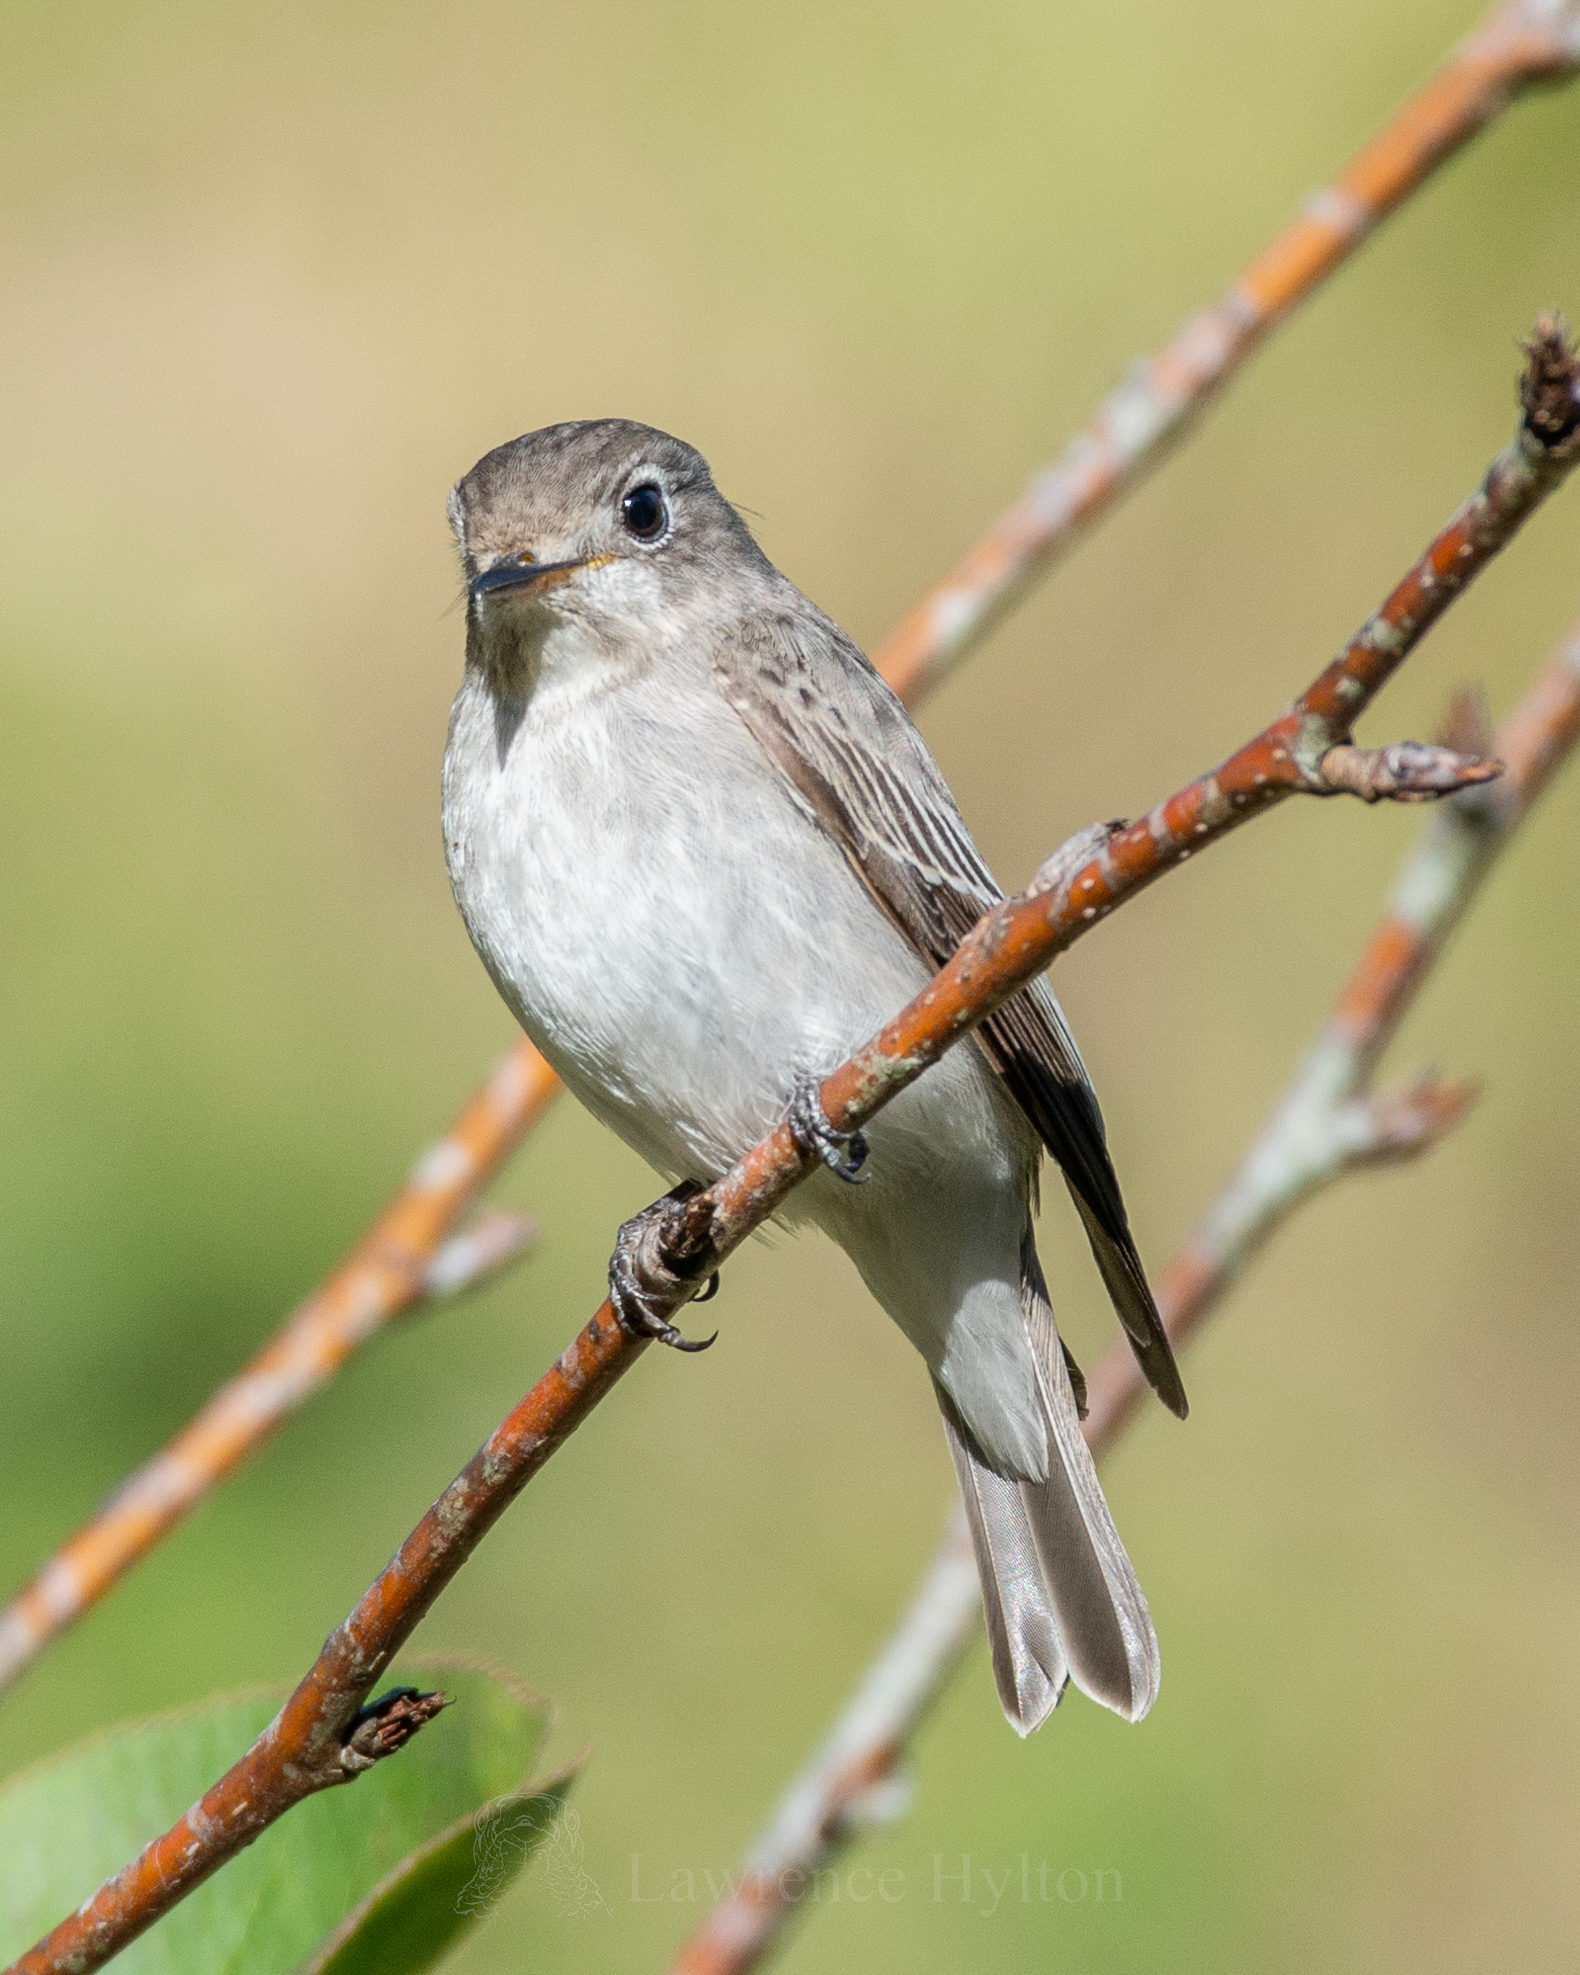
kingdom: Animalia
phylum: Chordata
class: Aves
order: Passeriformes
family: Muscicapidae
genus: Muscicapa
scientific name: Muscicapa latirostris
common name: Asian brown flycatcher
